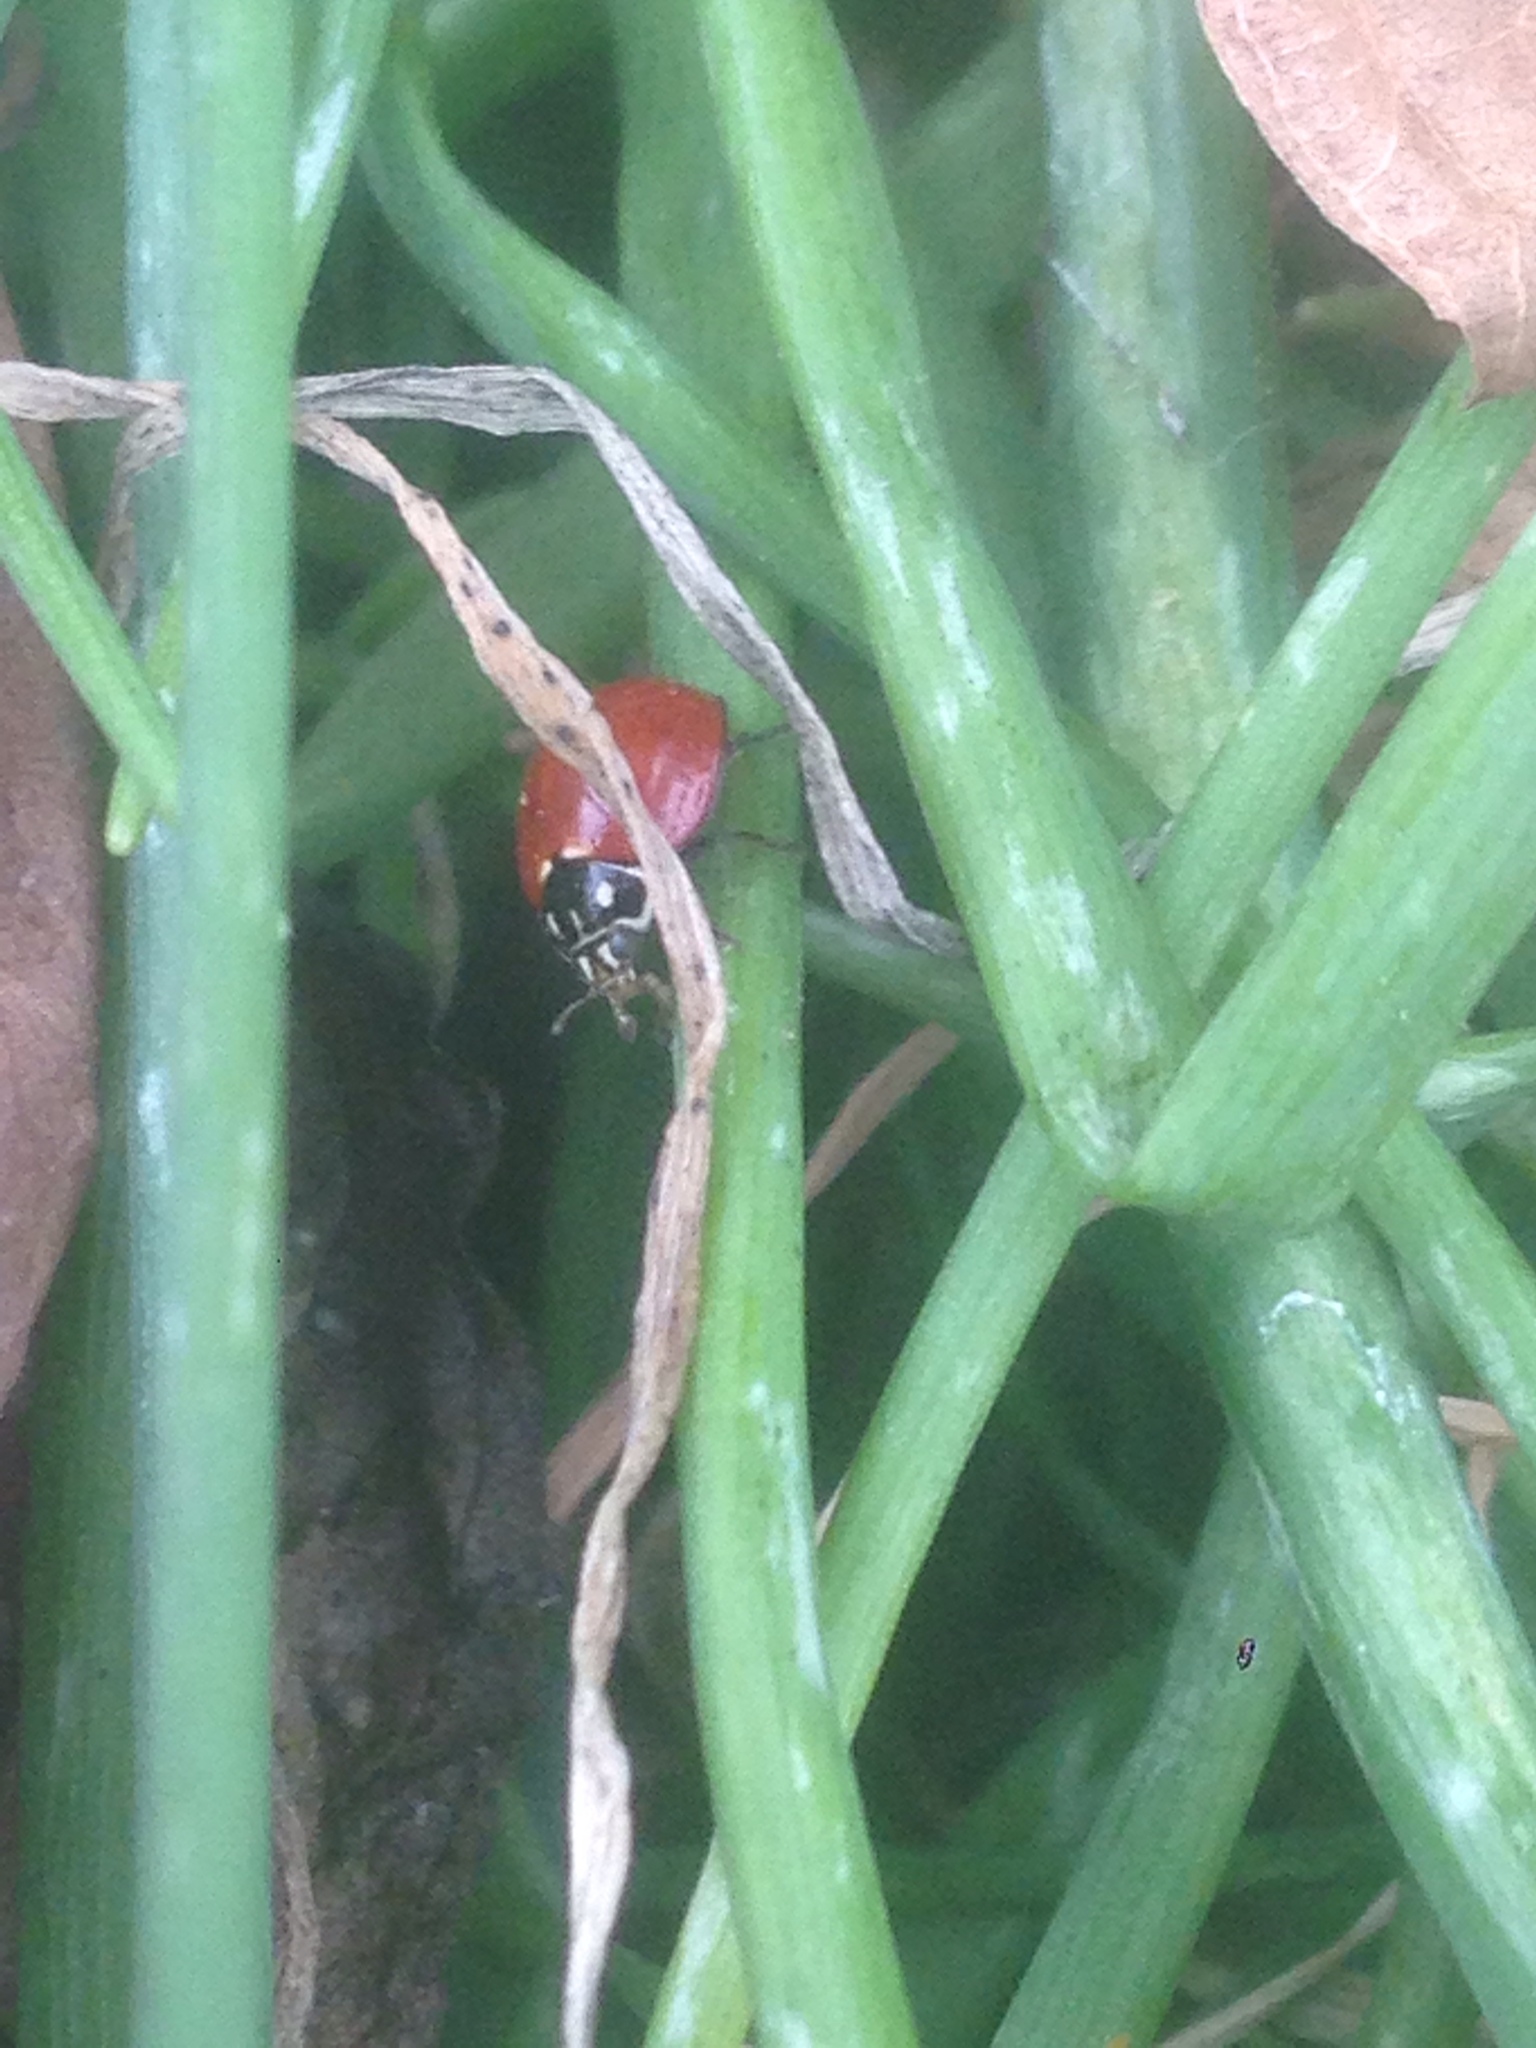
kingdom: Animalia
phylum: Arthropoda
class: Insecta
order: Coleoptera
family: Coccinellidae
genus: Cycloneda
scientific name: Cycloneda sanguinea
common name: Ladybird beetle
